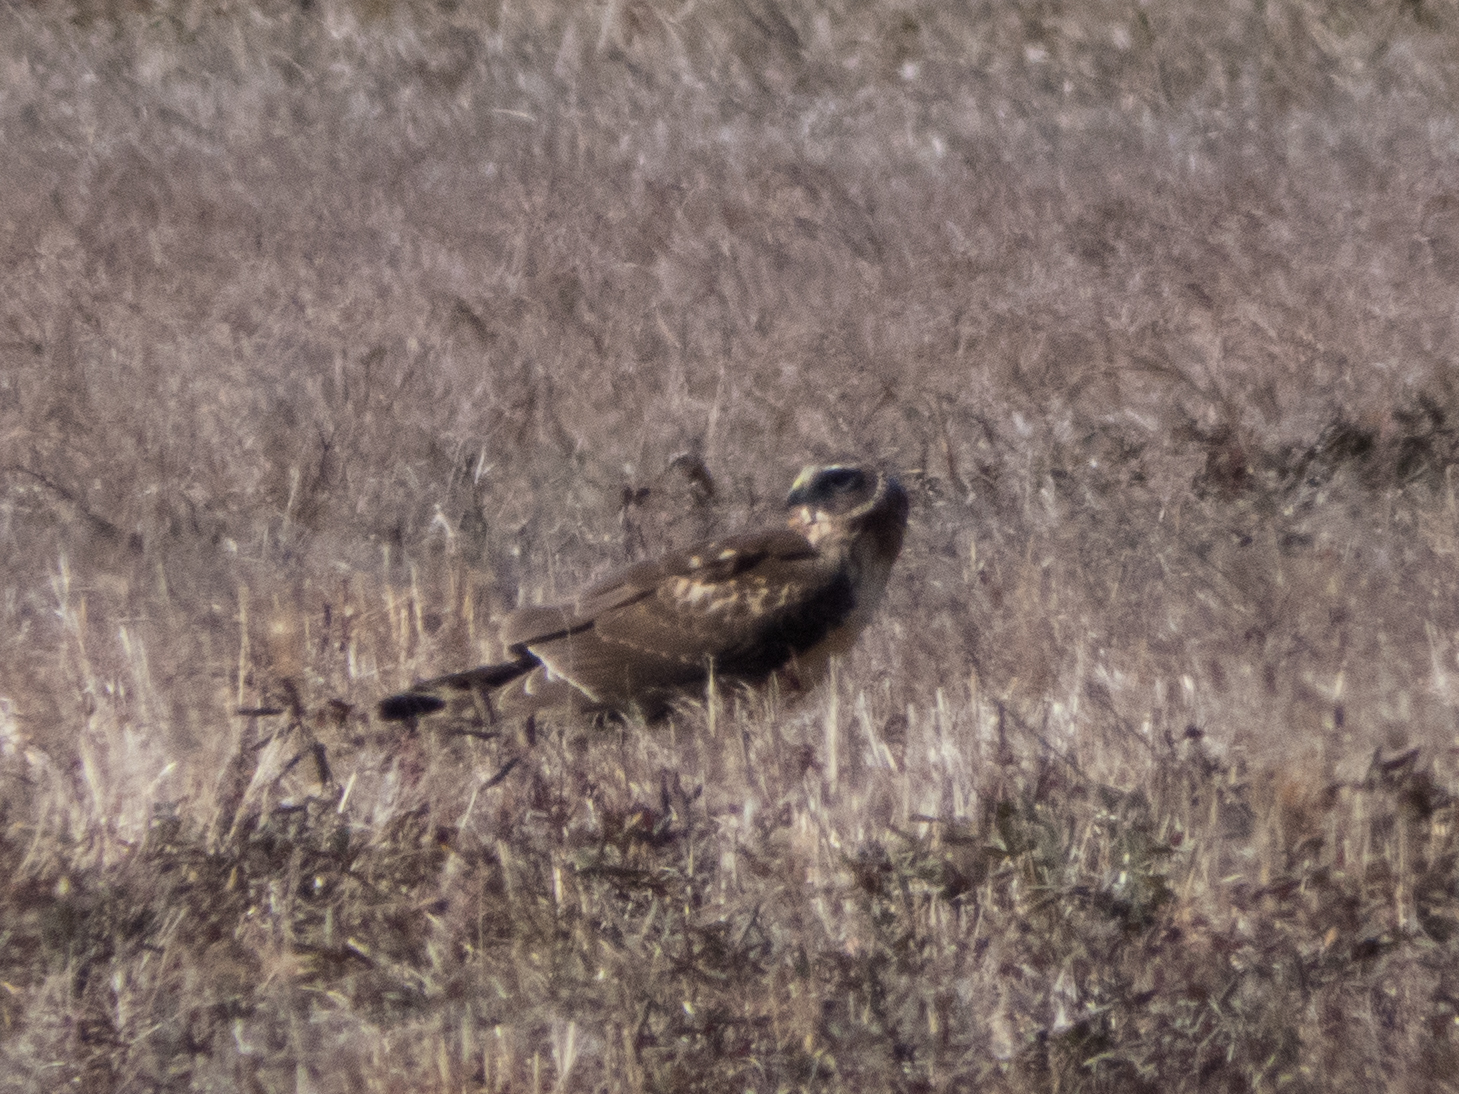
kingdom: Animalia
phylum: Chordata
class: Aves
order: Accipitriformes
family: Accipitridae
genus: Circus
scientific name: Circus cyaneus
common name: Hen harrier
